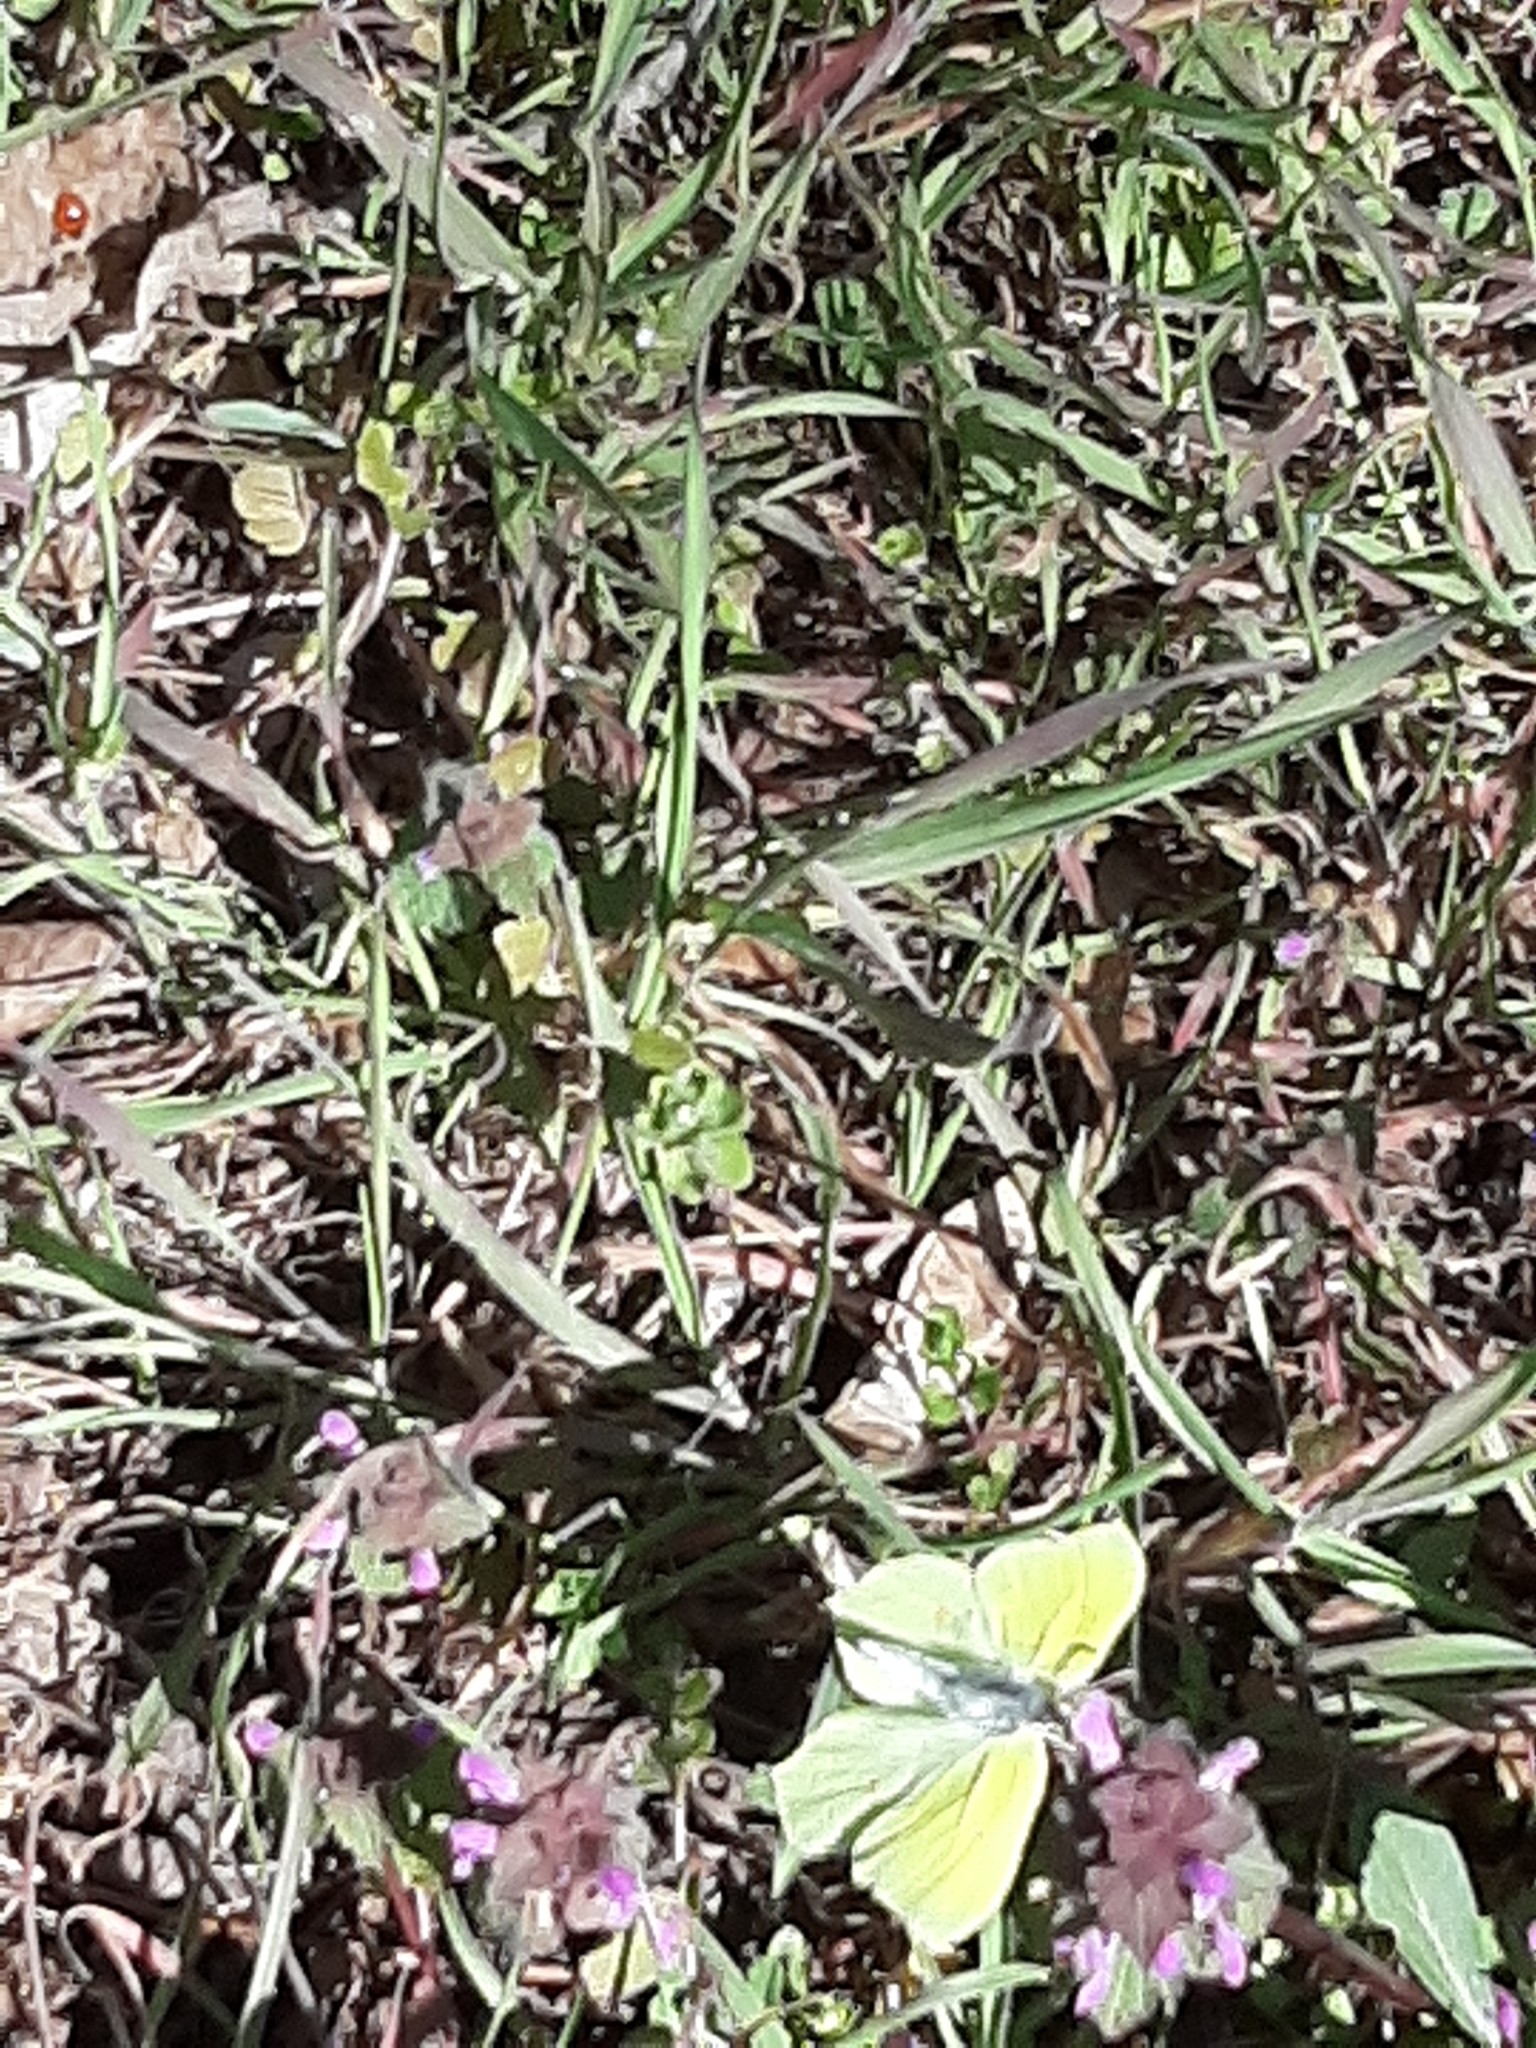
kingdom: Animalia
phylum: Arthropoda
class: Insecta
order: Lepidoptera
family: Pieridae
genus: Gonepteryx
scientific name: Gonepteryx rhamni
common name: Brimstone
